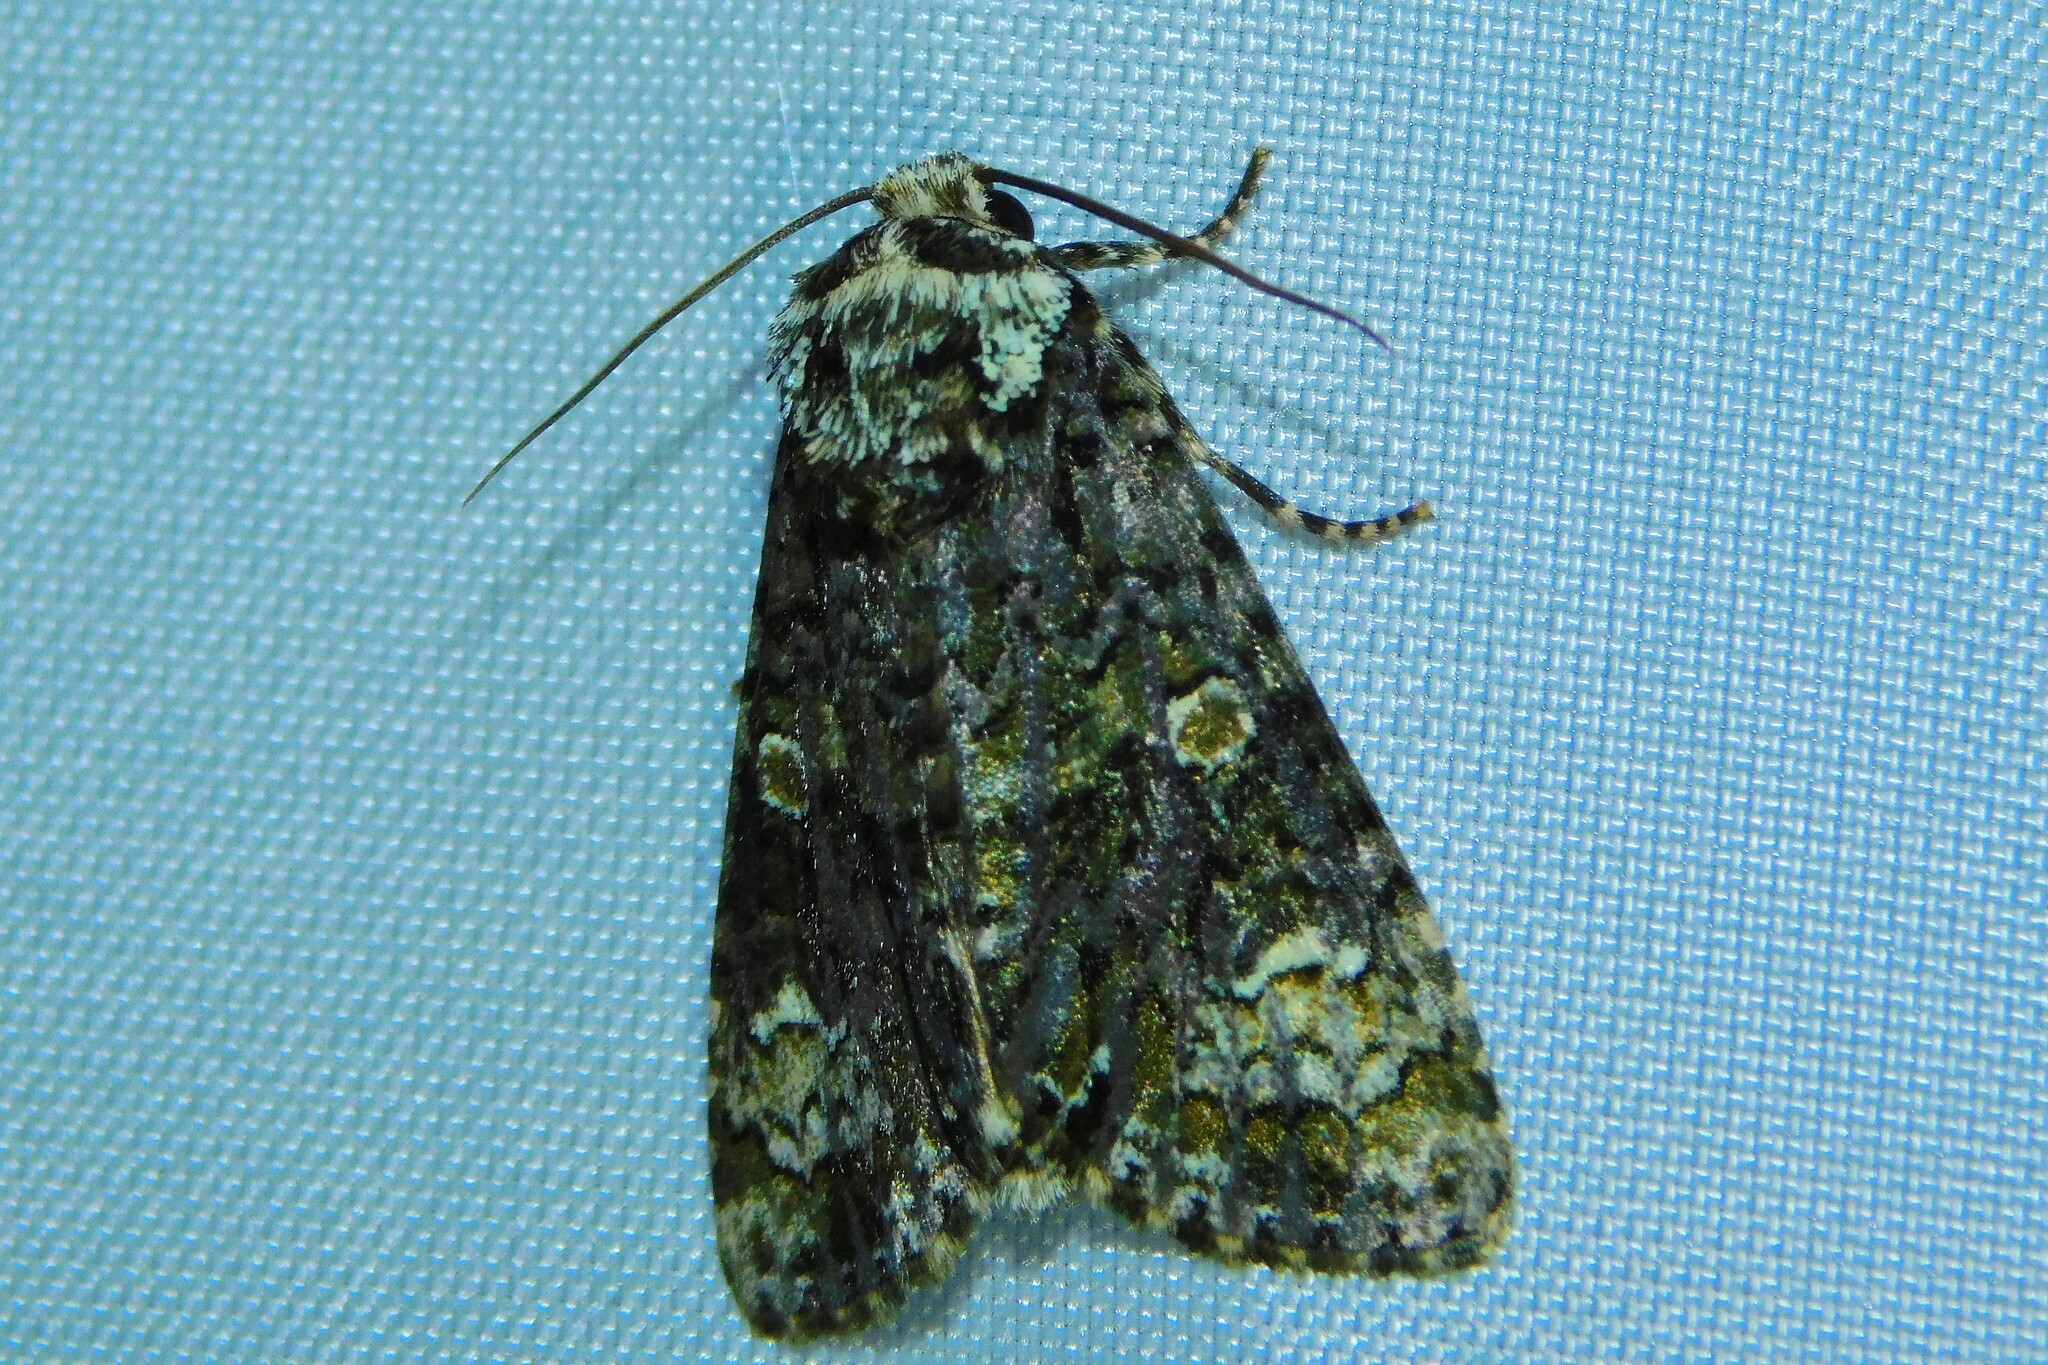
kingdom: Animalia
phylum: Arthropoda
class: Insecta
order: Lepidoptera
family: Noctuidae
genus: Craniophora
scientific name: Craniophora ligustri
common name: Coronet
